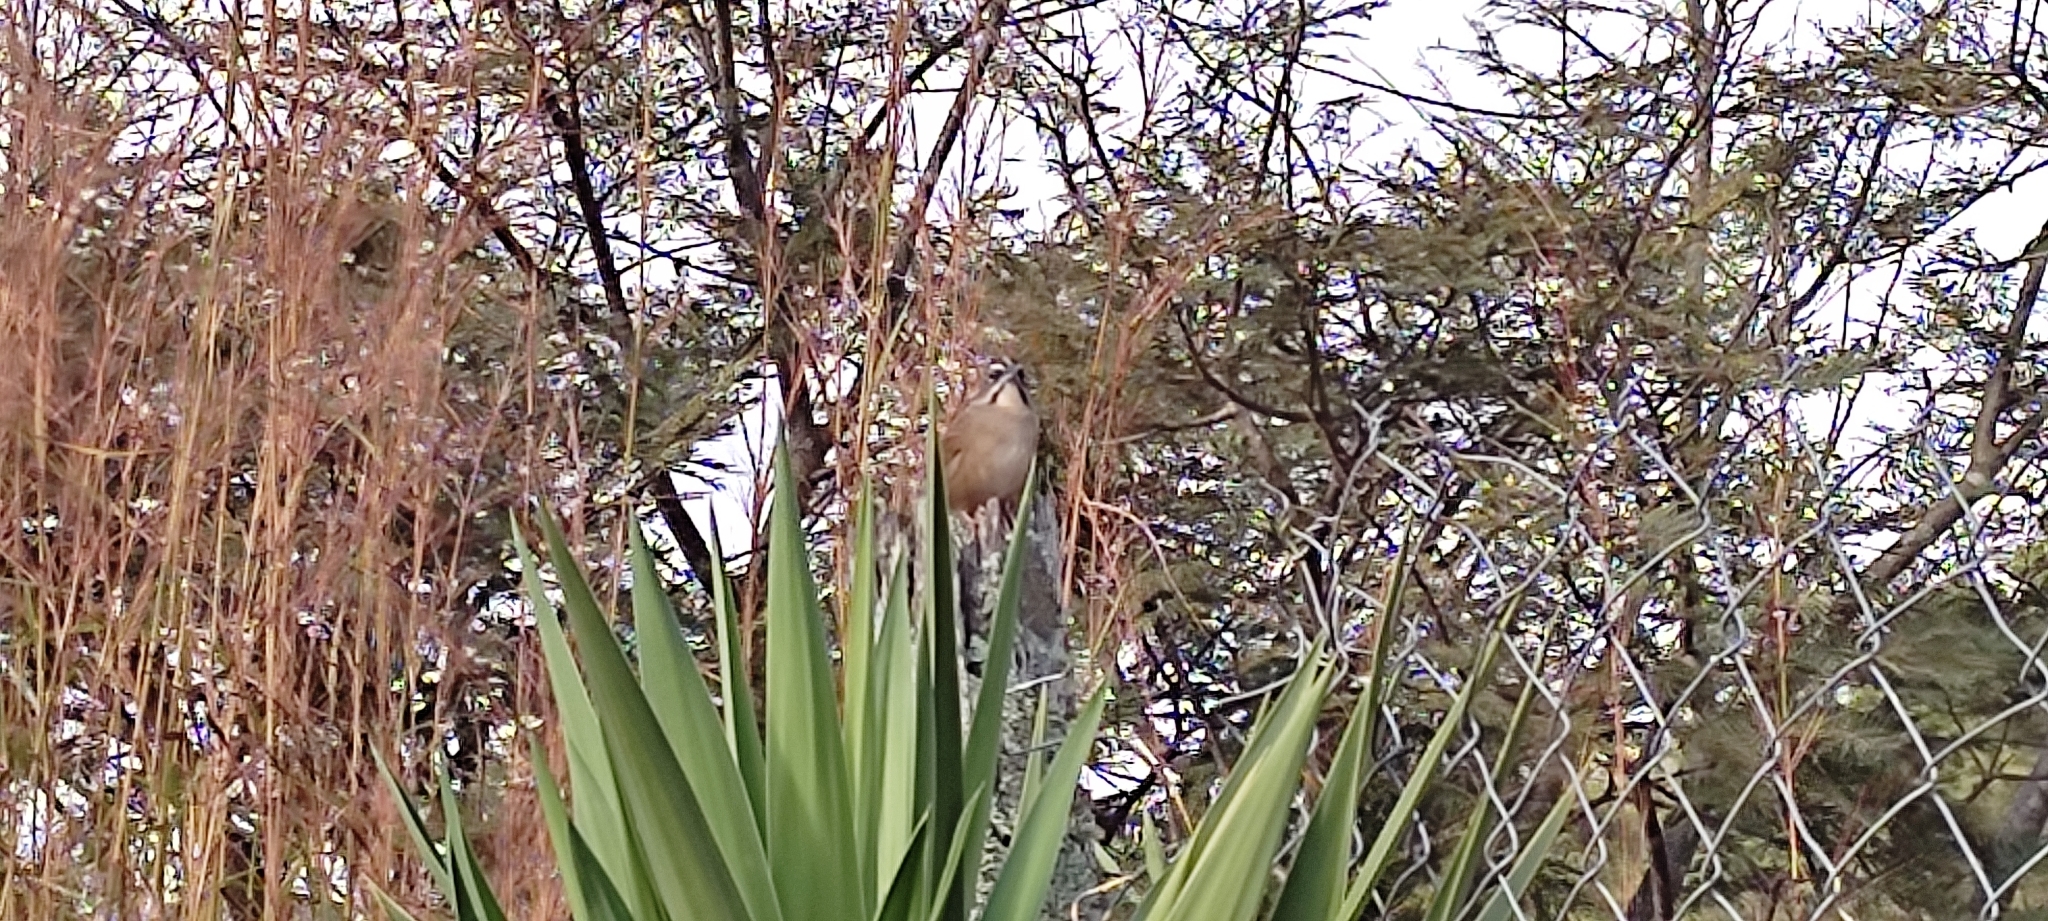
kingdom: Animalia
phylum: Chordata
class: Aves
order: Passeriformes
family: Passerellidae
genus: Aimophila
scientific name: Aimophila rufescens
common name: Rusty sparrow
